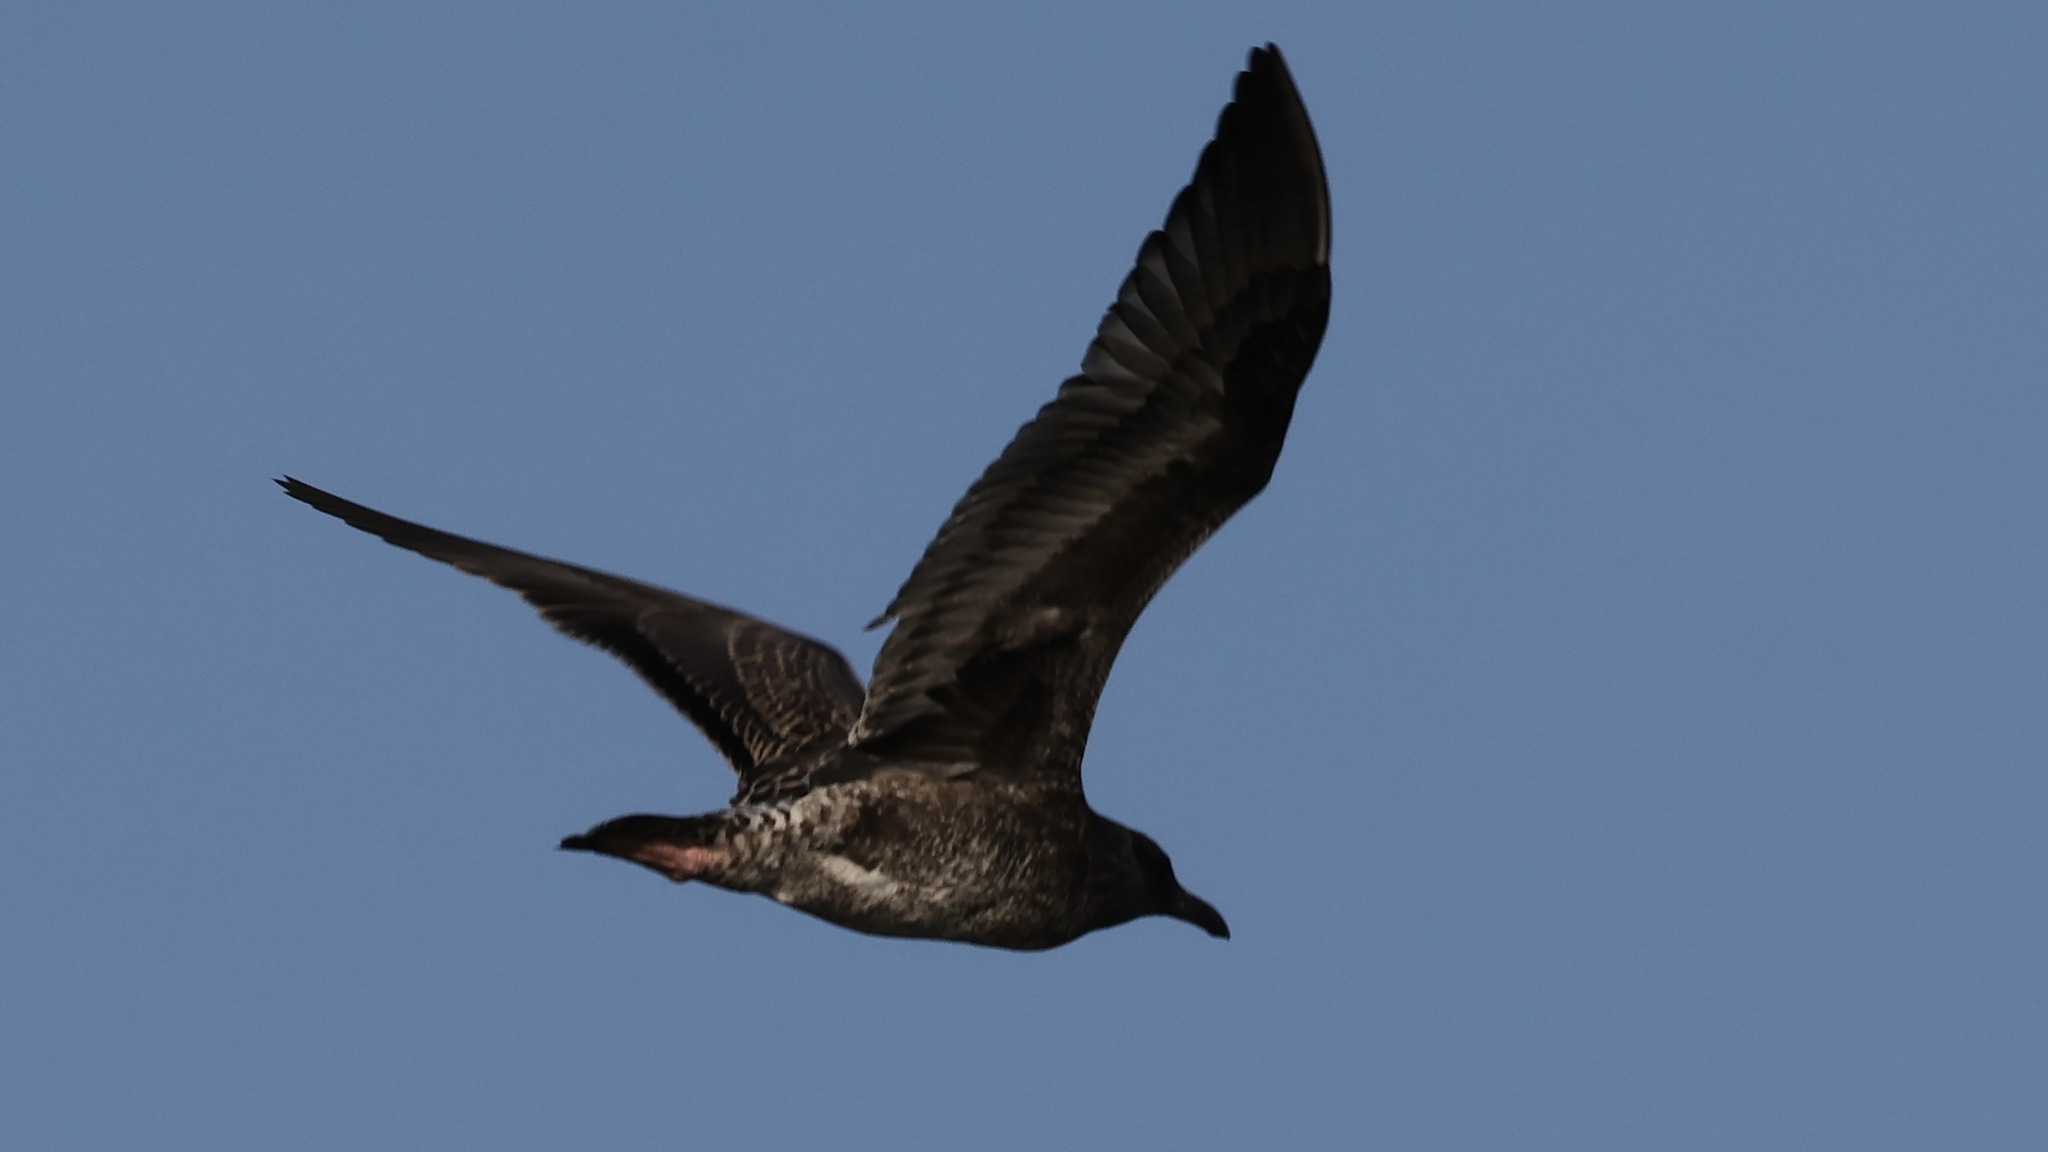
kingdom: Animalia
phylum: Chordata
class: Aves
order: Charadriiformes
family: Laridae
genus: Larus
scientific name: Larus occidentalis
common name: Western gull
